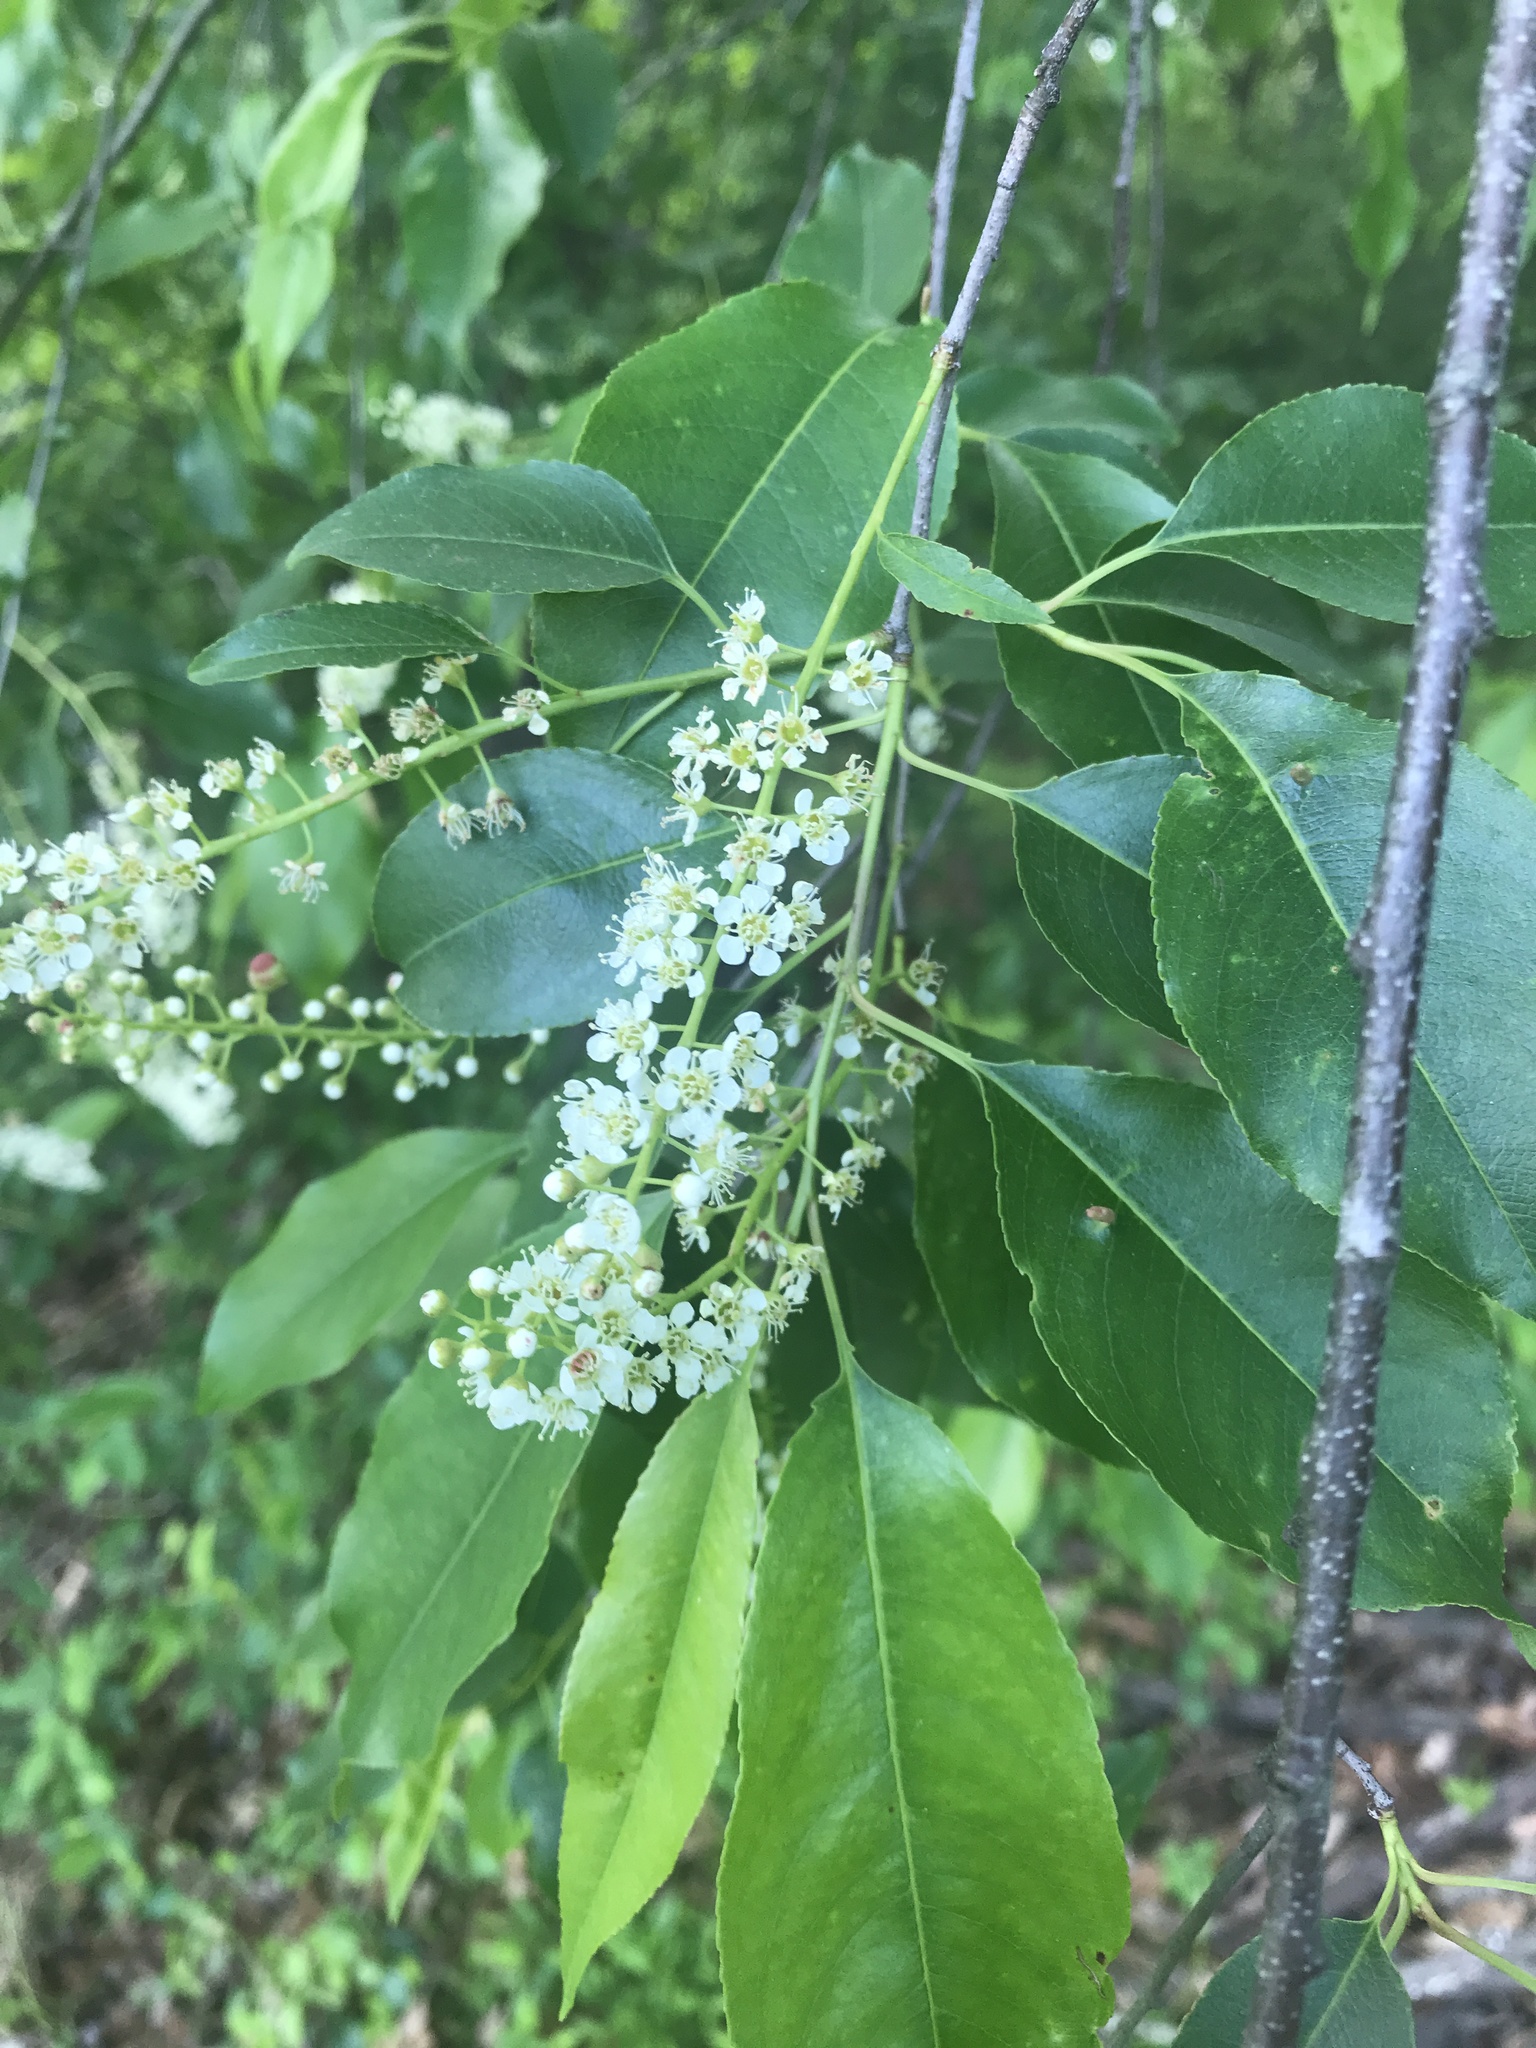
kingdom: Plantae
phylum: Tracheophyta
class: Magnoliopsida
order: Rosales
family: Rosaceae
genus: Prunus
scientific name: Prunus serotina
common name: Black cherry
